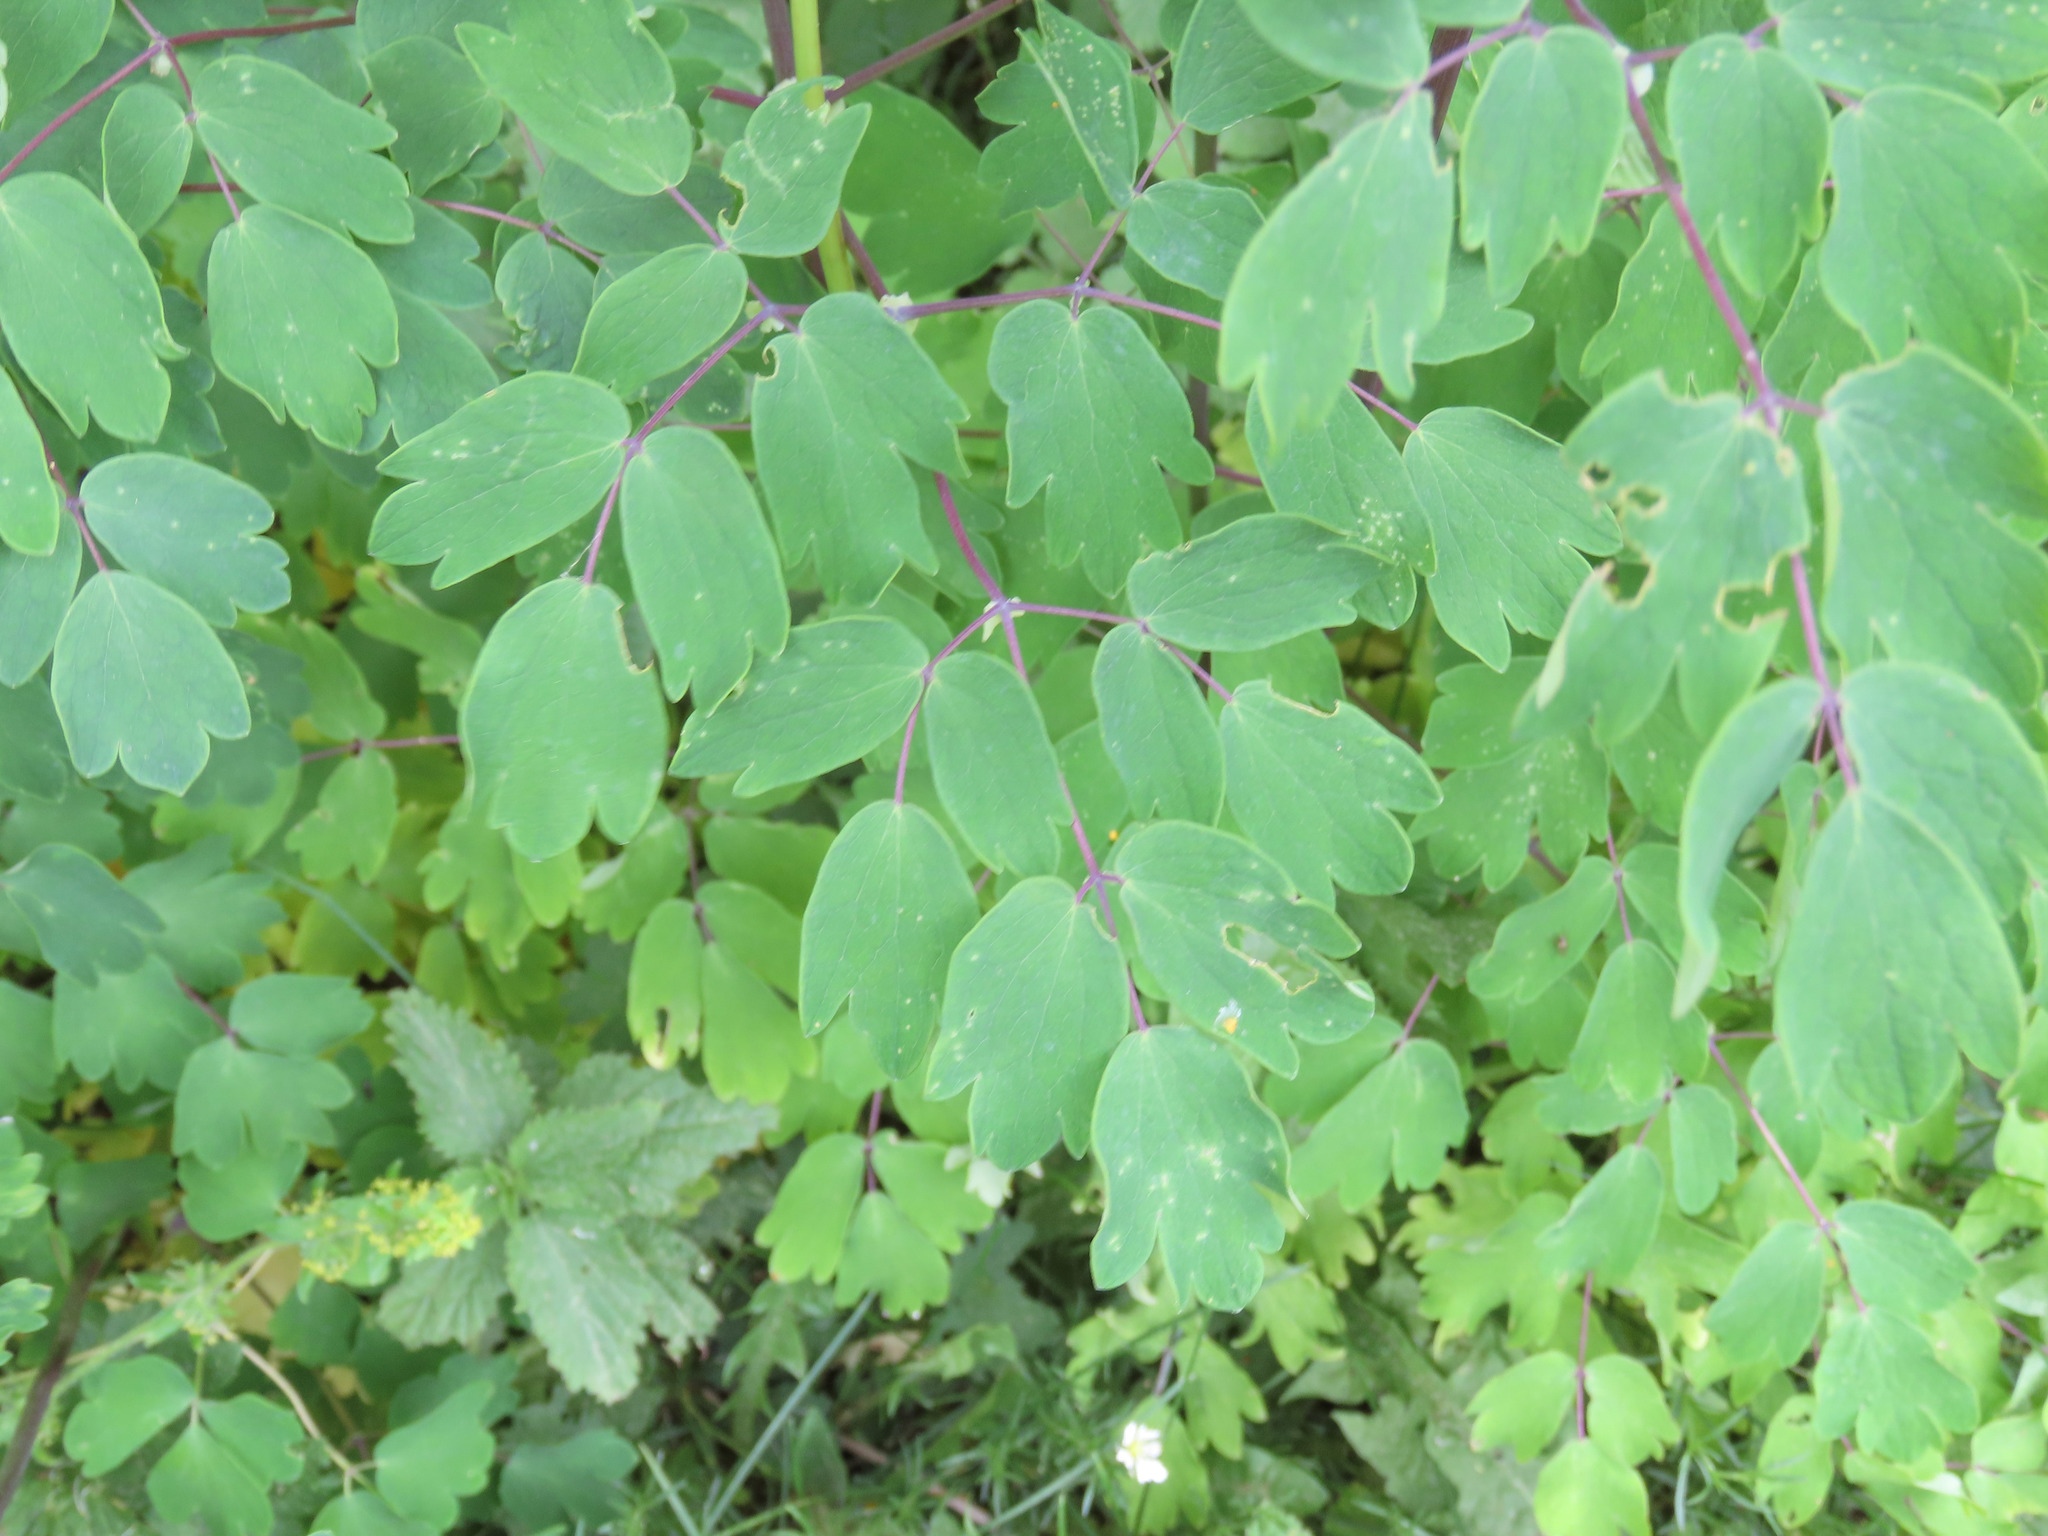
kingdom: Plantae
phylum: Tracheophyta
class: Magnoliopsida
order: Ranunculales
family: Ranunculaceae
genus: Thalictrum
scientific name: Thalictrum aquilegiifolium
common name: French meadow-rue
